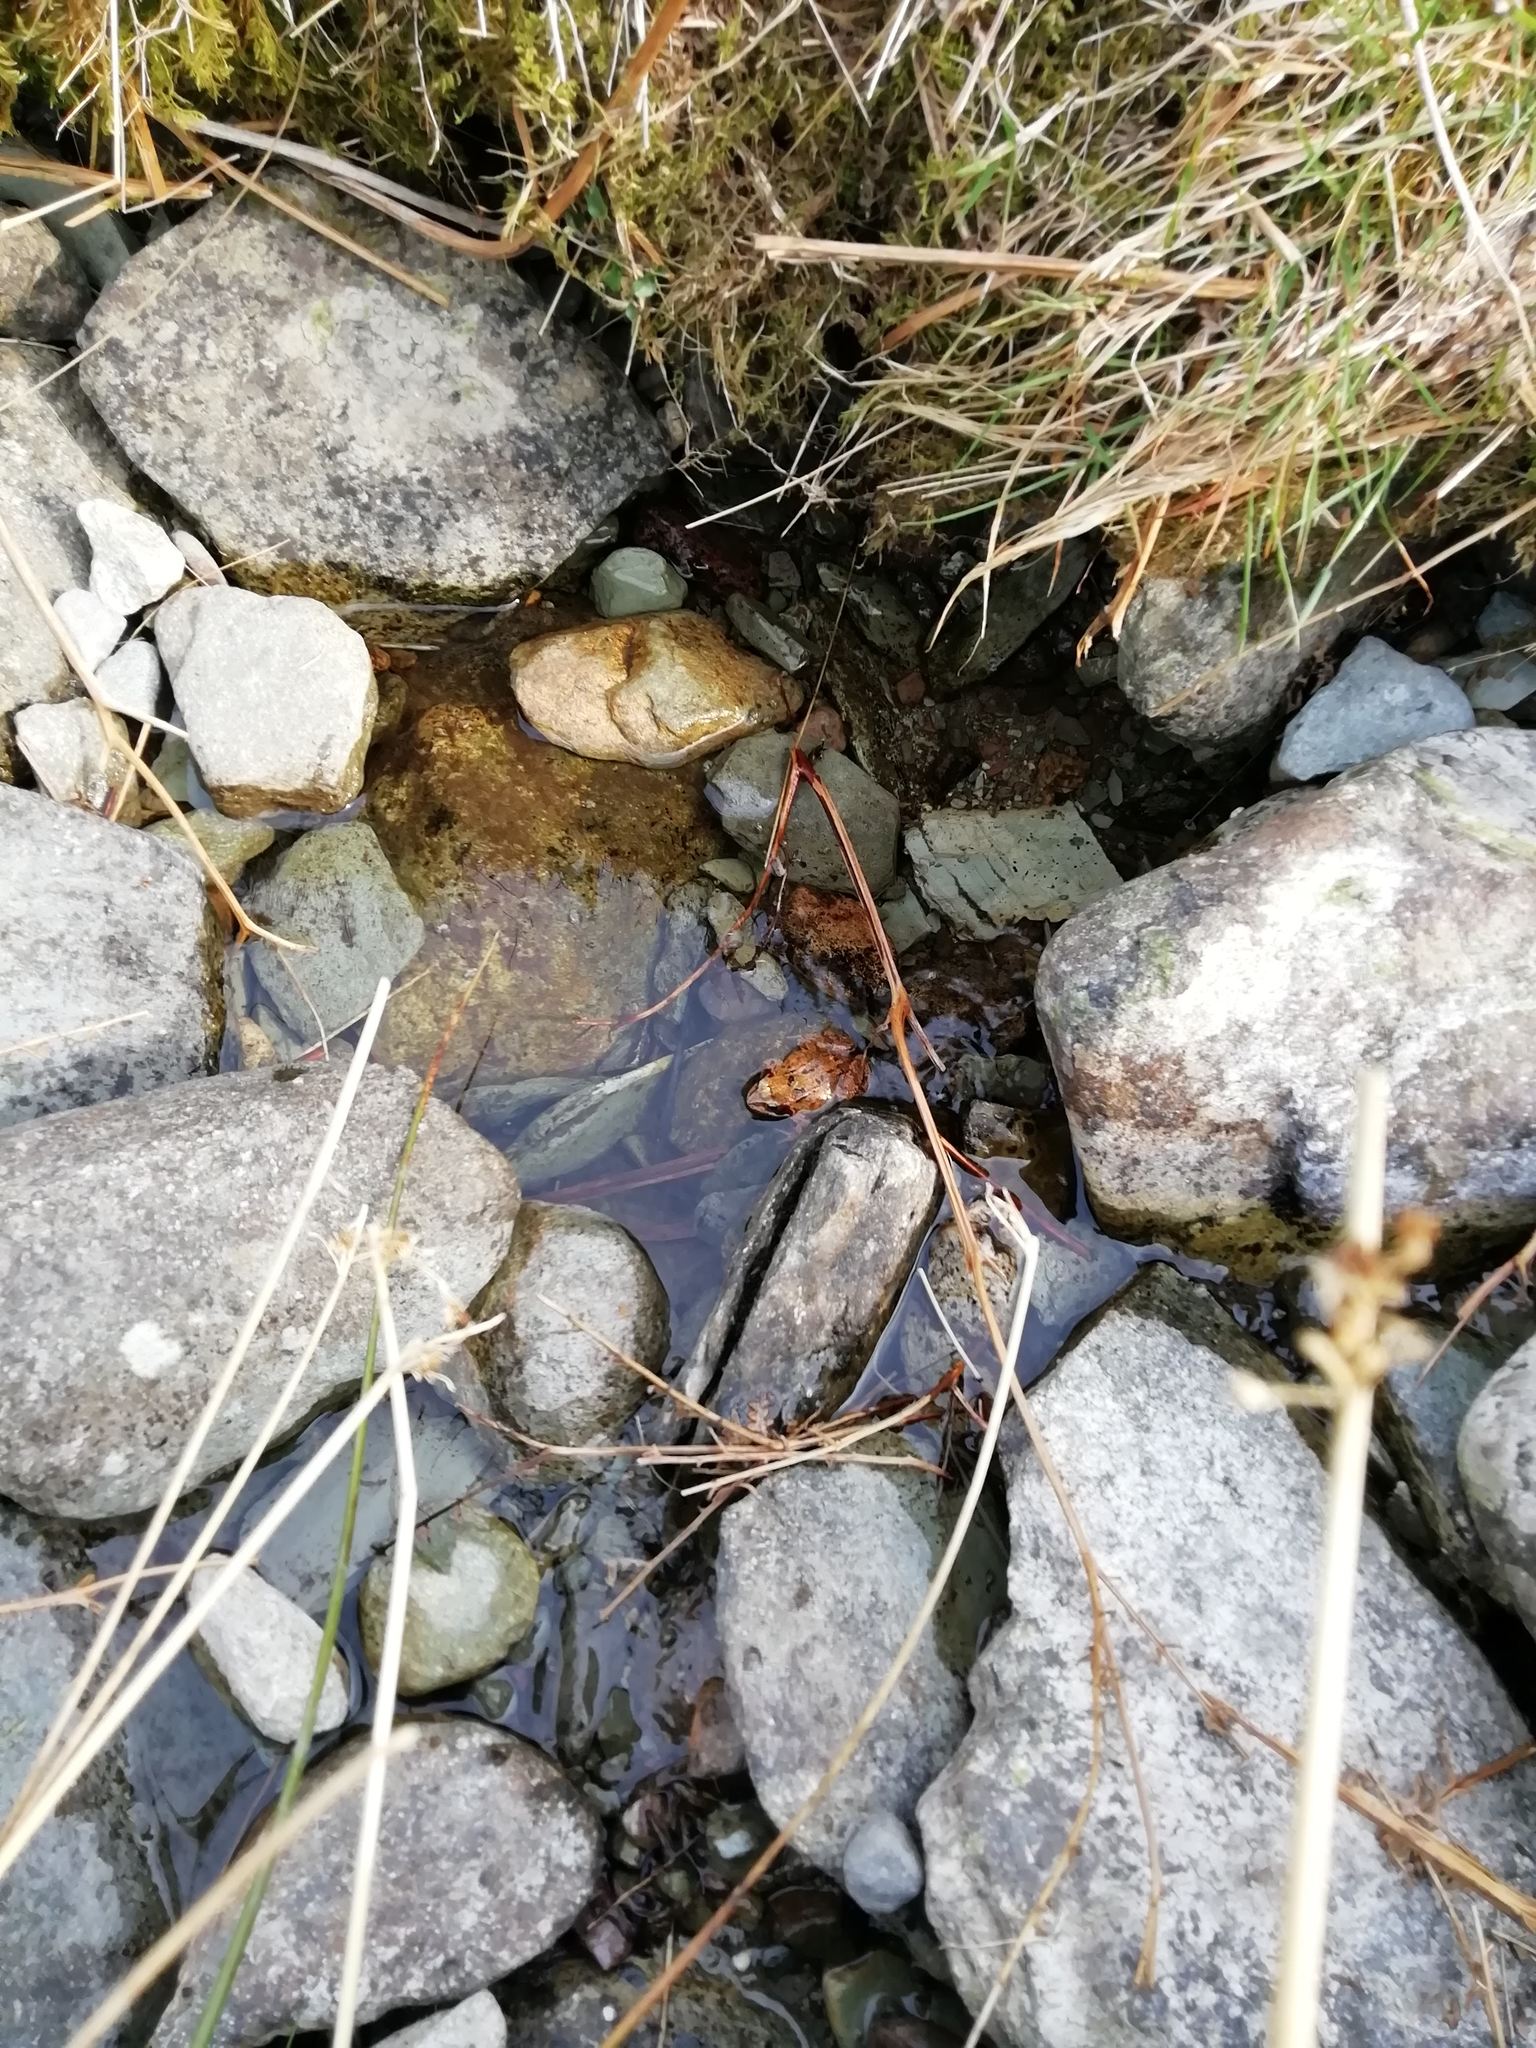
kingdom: Animalia
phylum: Chordata
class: Amphibia
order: Anura
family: Ranidae
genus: Rana
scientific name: Rana temporaria
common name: Common frog
